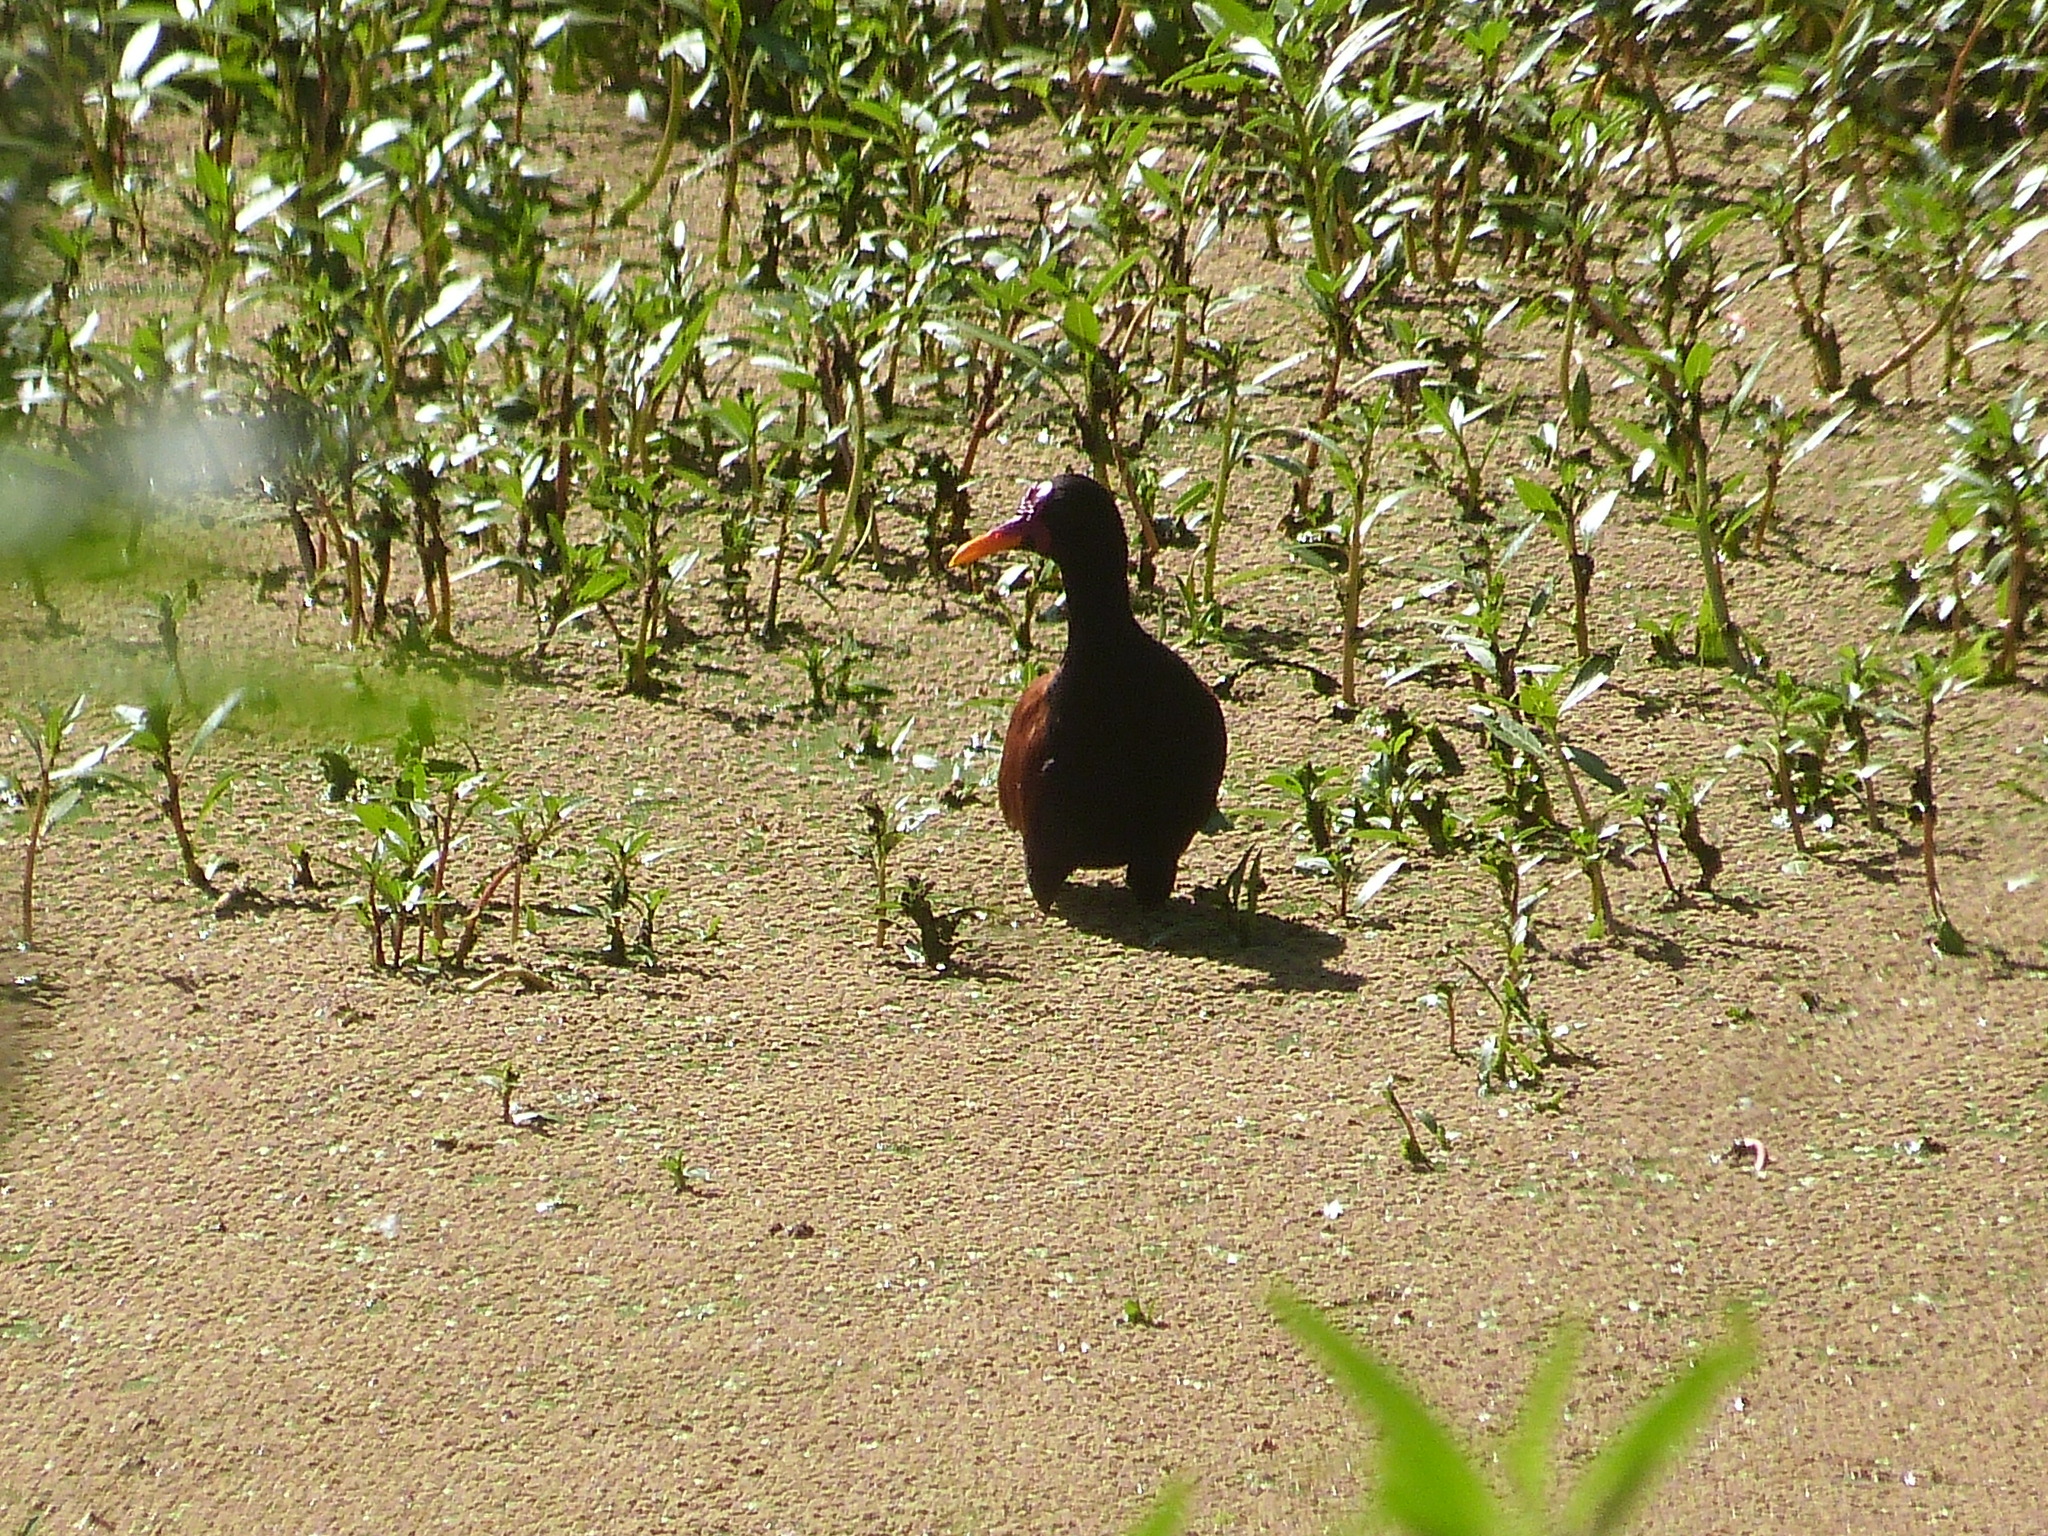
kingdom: Animalia
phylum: Chordata
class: Aves
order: Charadriiformes
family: Jacanidae
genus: Jacana
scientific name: Jacana jacana
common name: Wattled jacana
